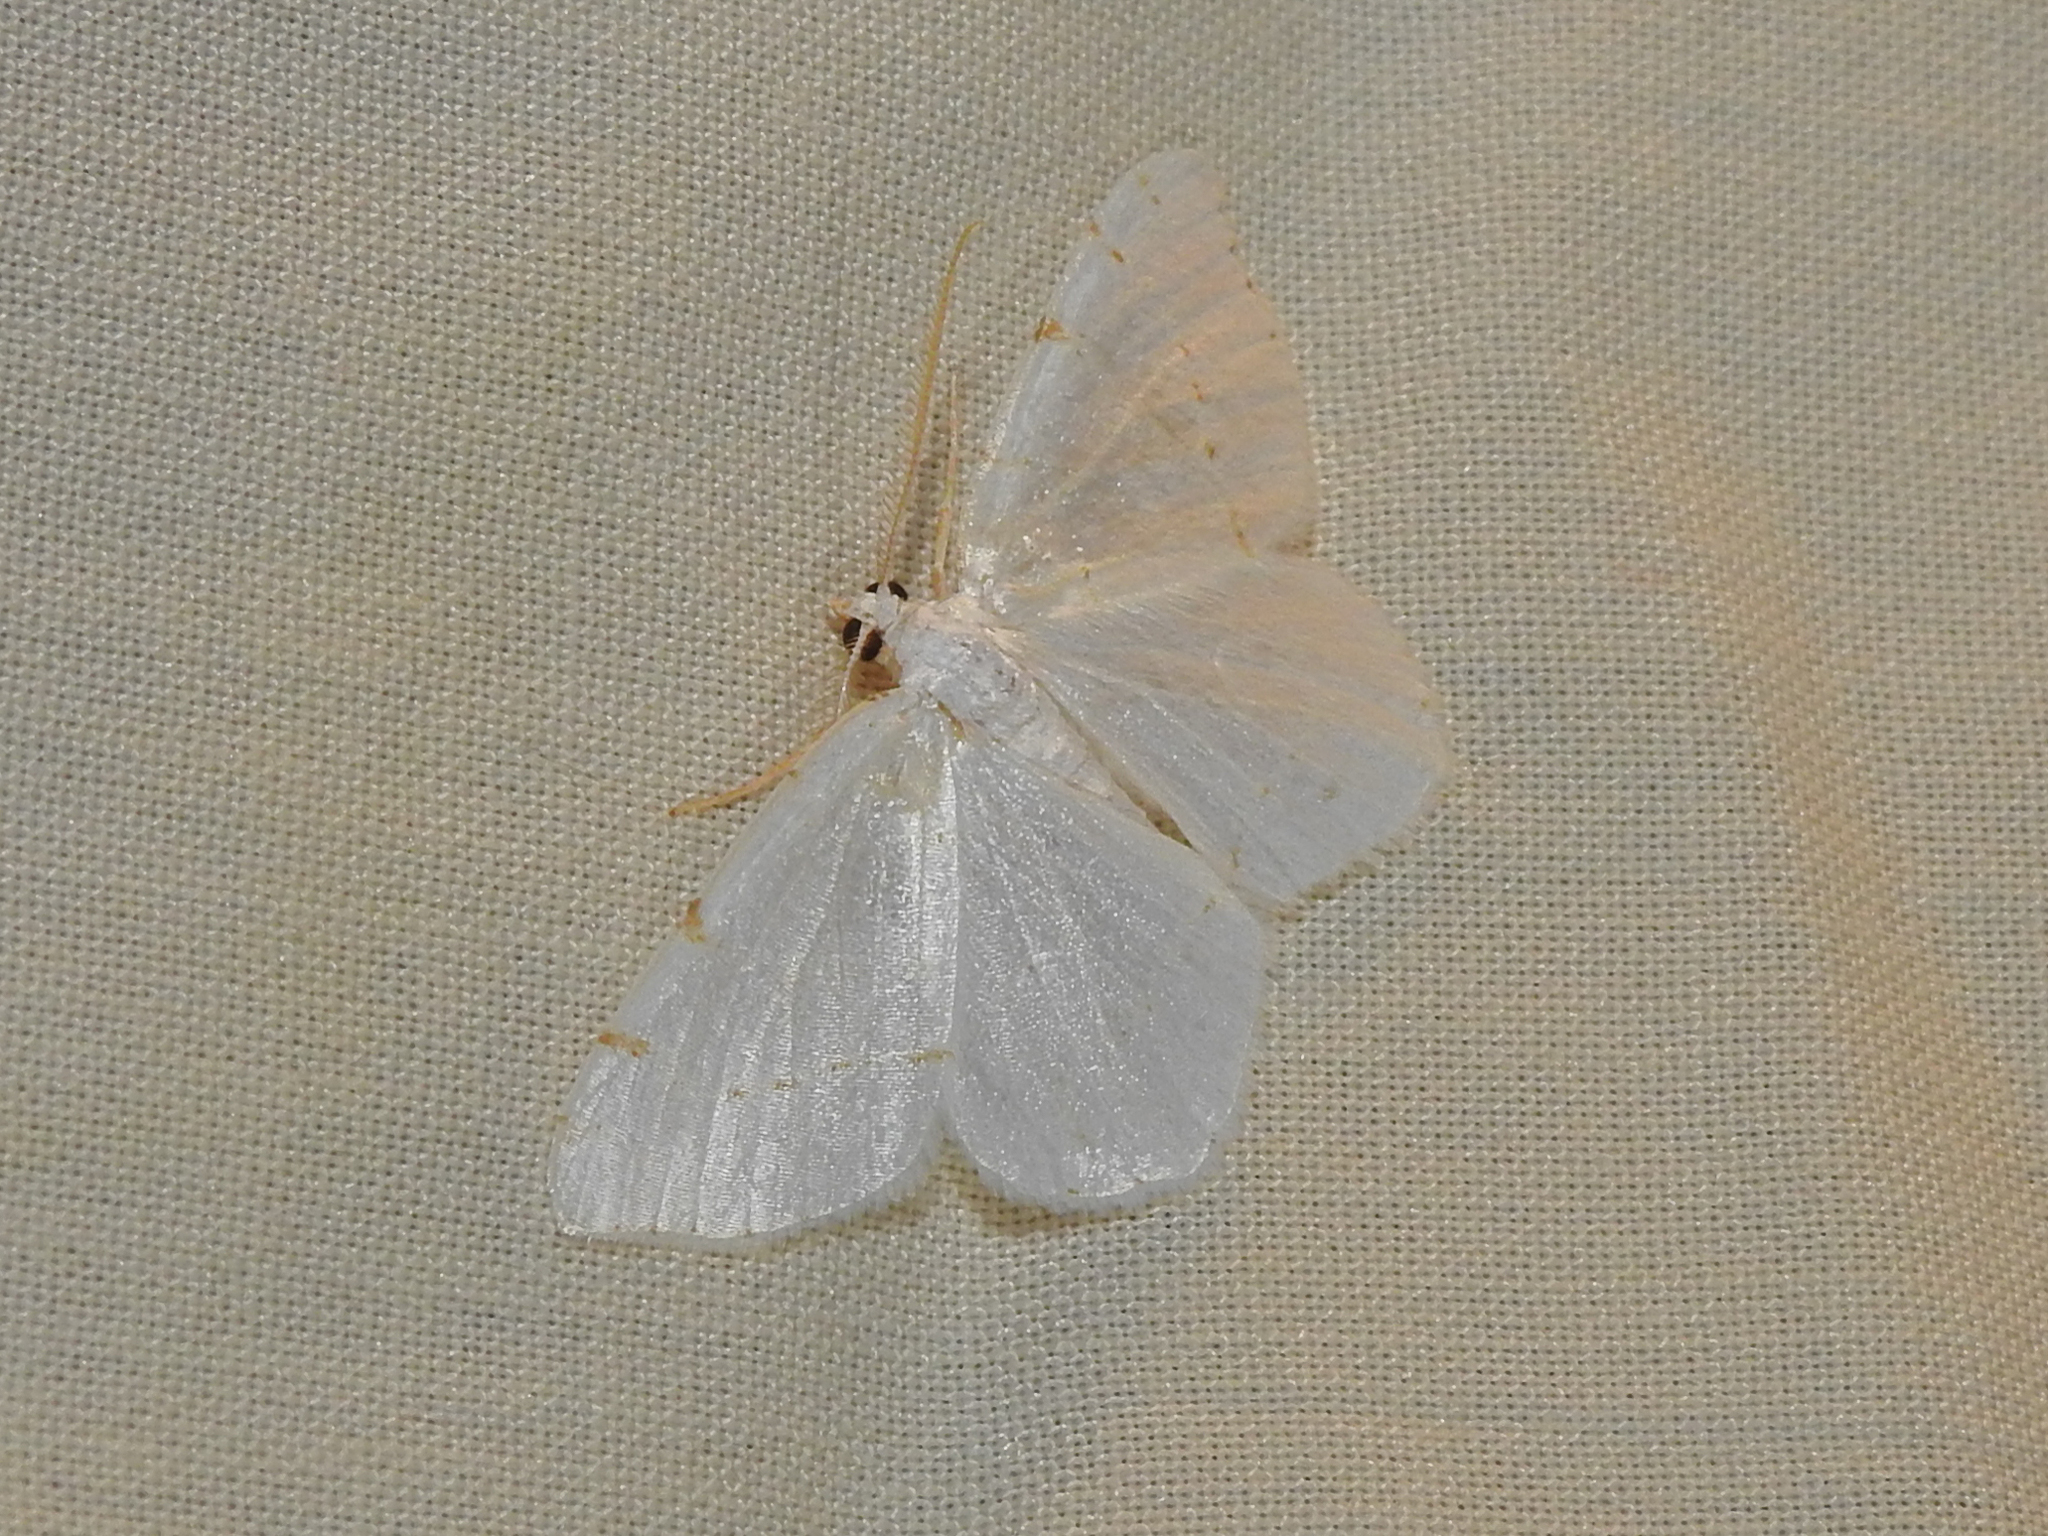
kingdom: Animalia
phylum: Arthropoda
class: Insecta
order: Lepidoptera
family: Geometridae
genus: Macaria
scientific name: Macaria pustularia
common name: Lesser maple spanworm moth
